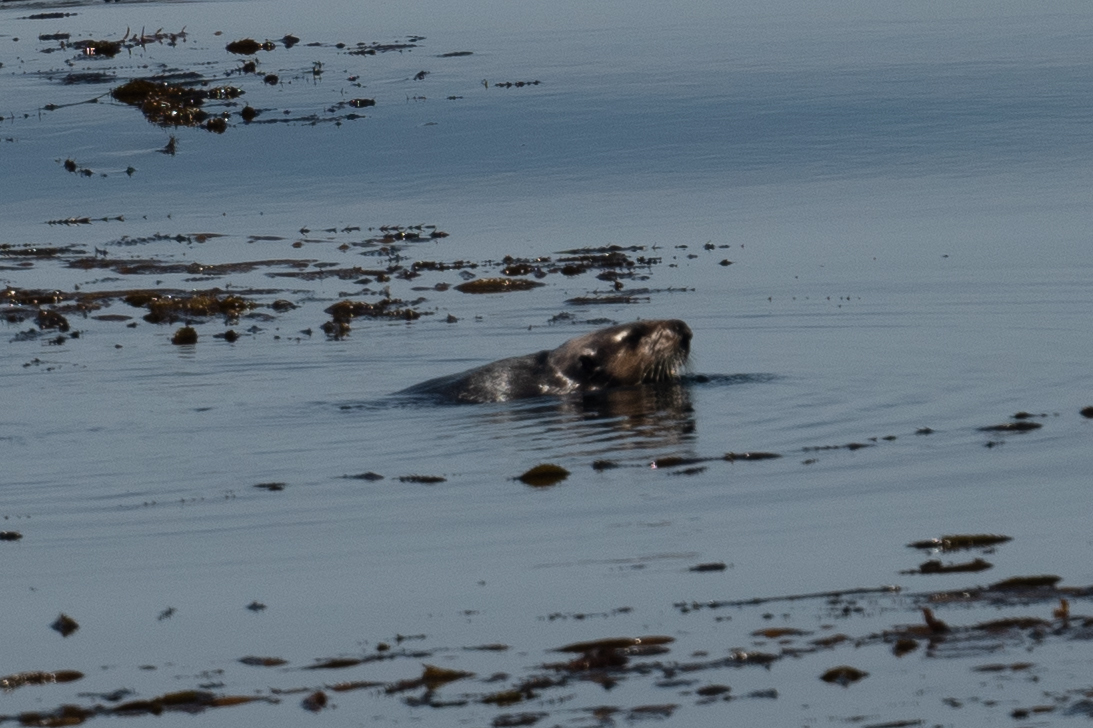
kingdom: Animalia
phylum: Chordata
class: Mammalia
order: Carnivora
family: Mustelidae
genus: Enhydra
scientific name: Enhydra lutris
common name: Sea otter
